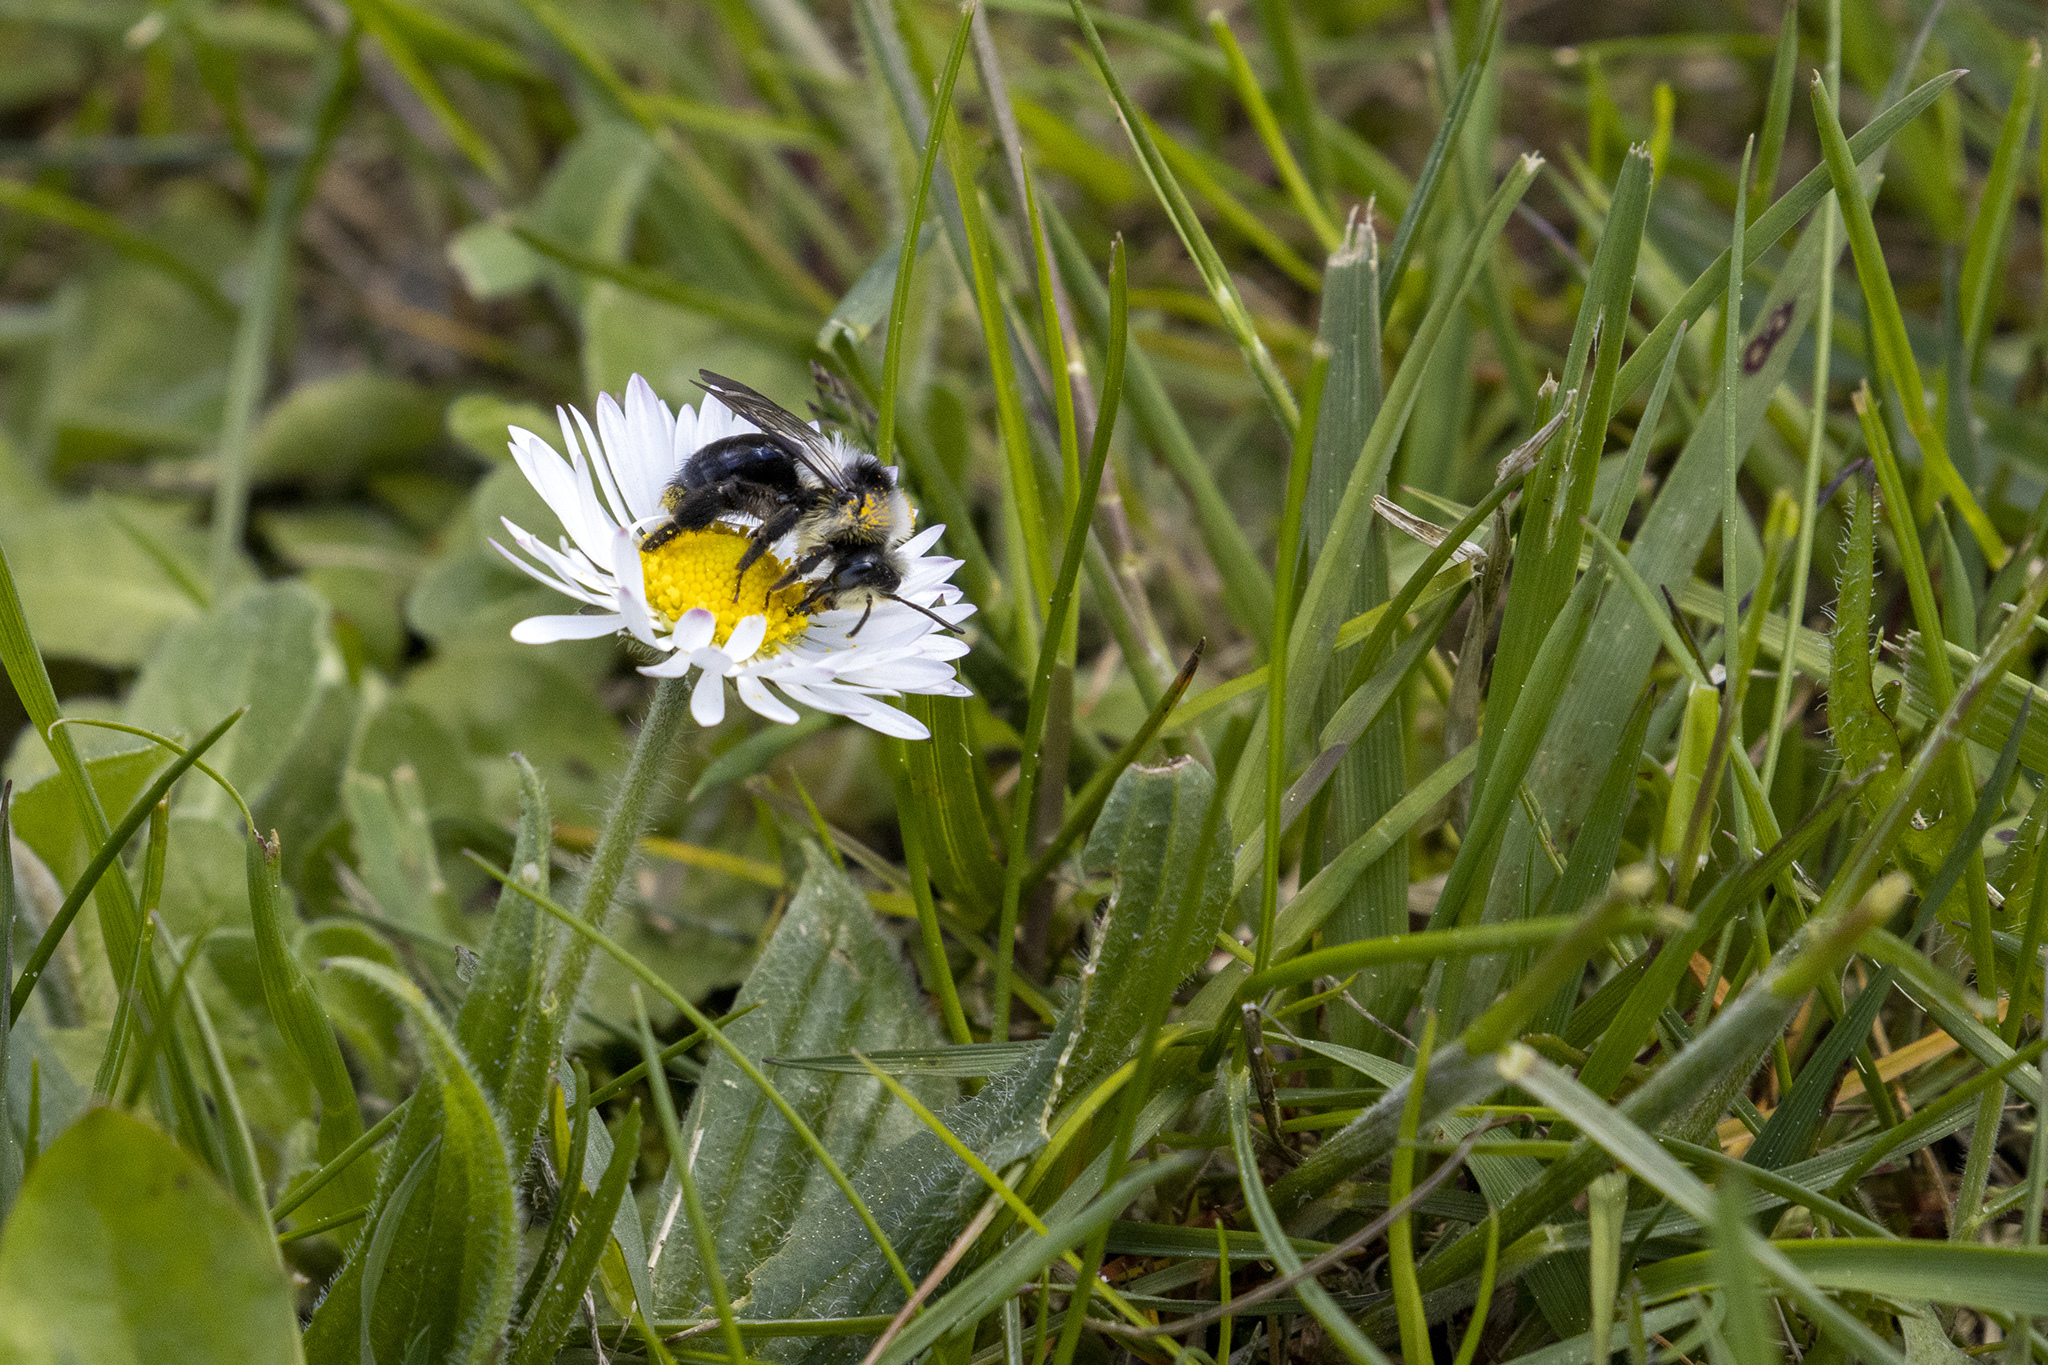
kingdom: Animalia
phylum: Arthropoda
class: Insecta
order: Hymenoptera
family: Andrenidae
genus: Andrena
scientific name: Andrena cineraria
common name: Ashy mining bee
